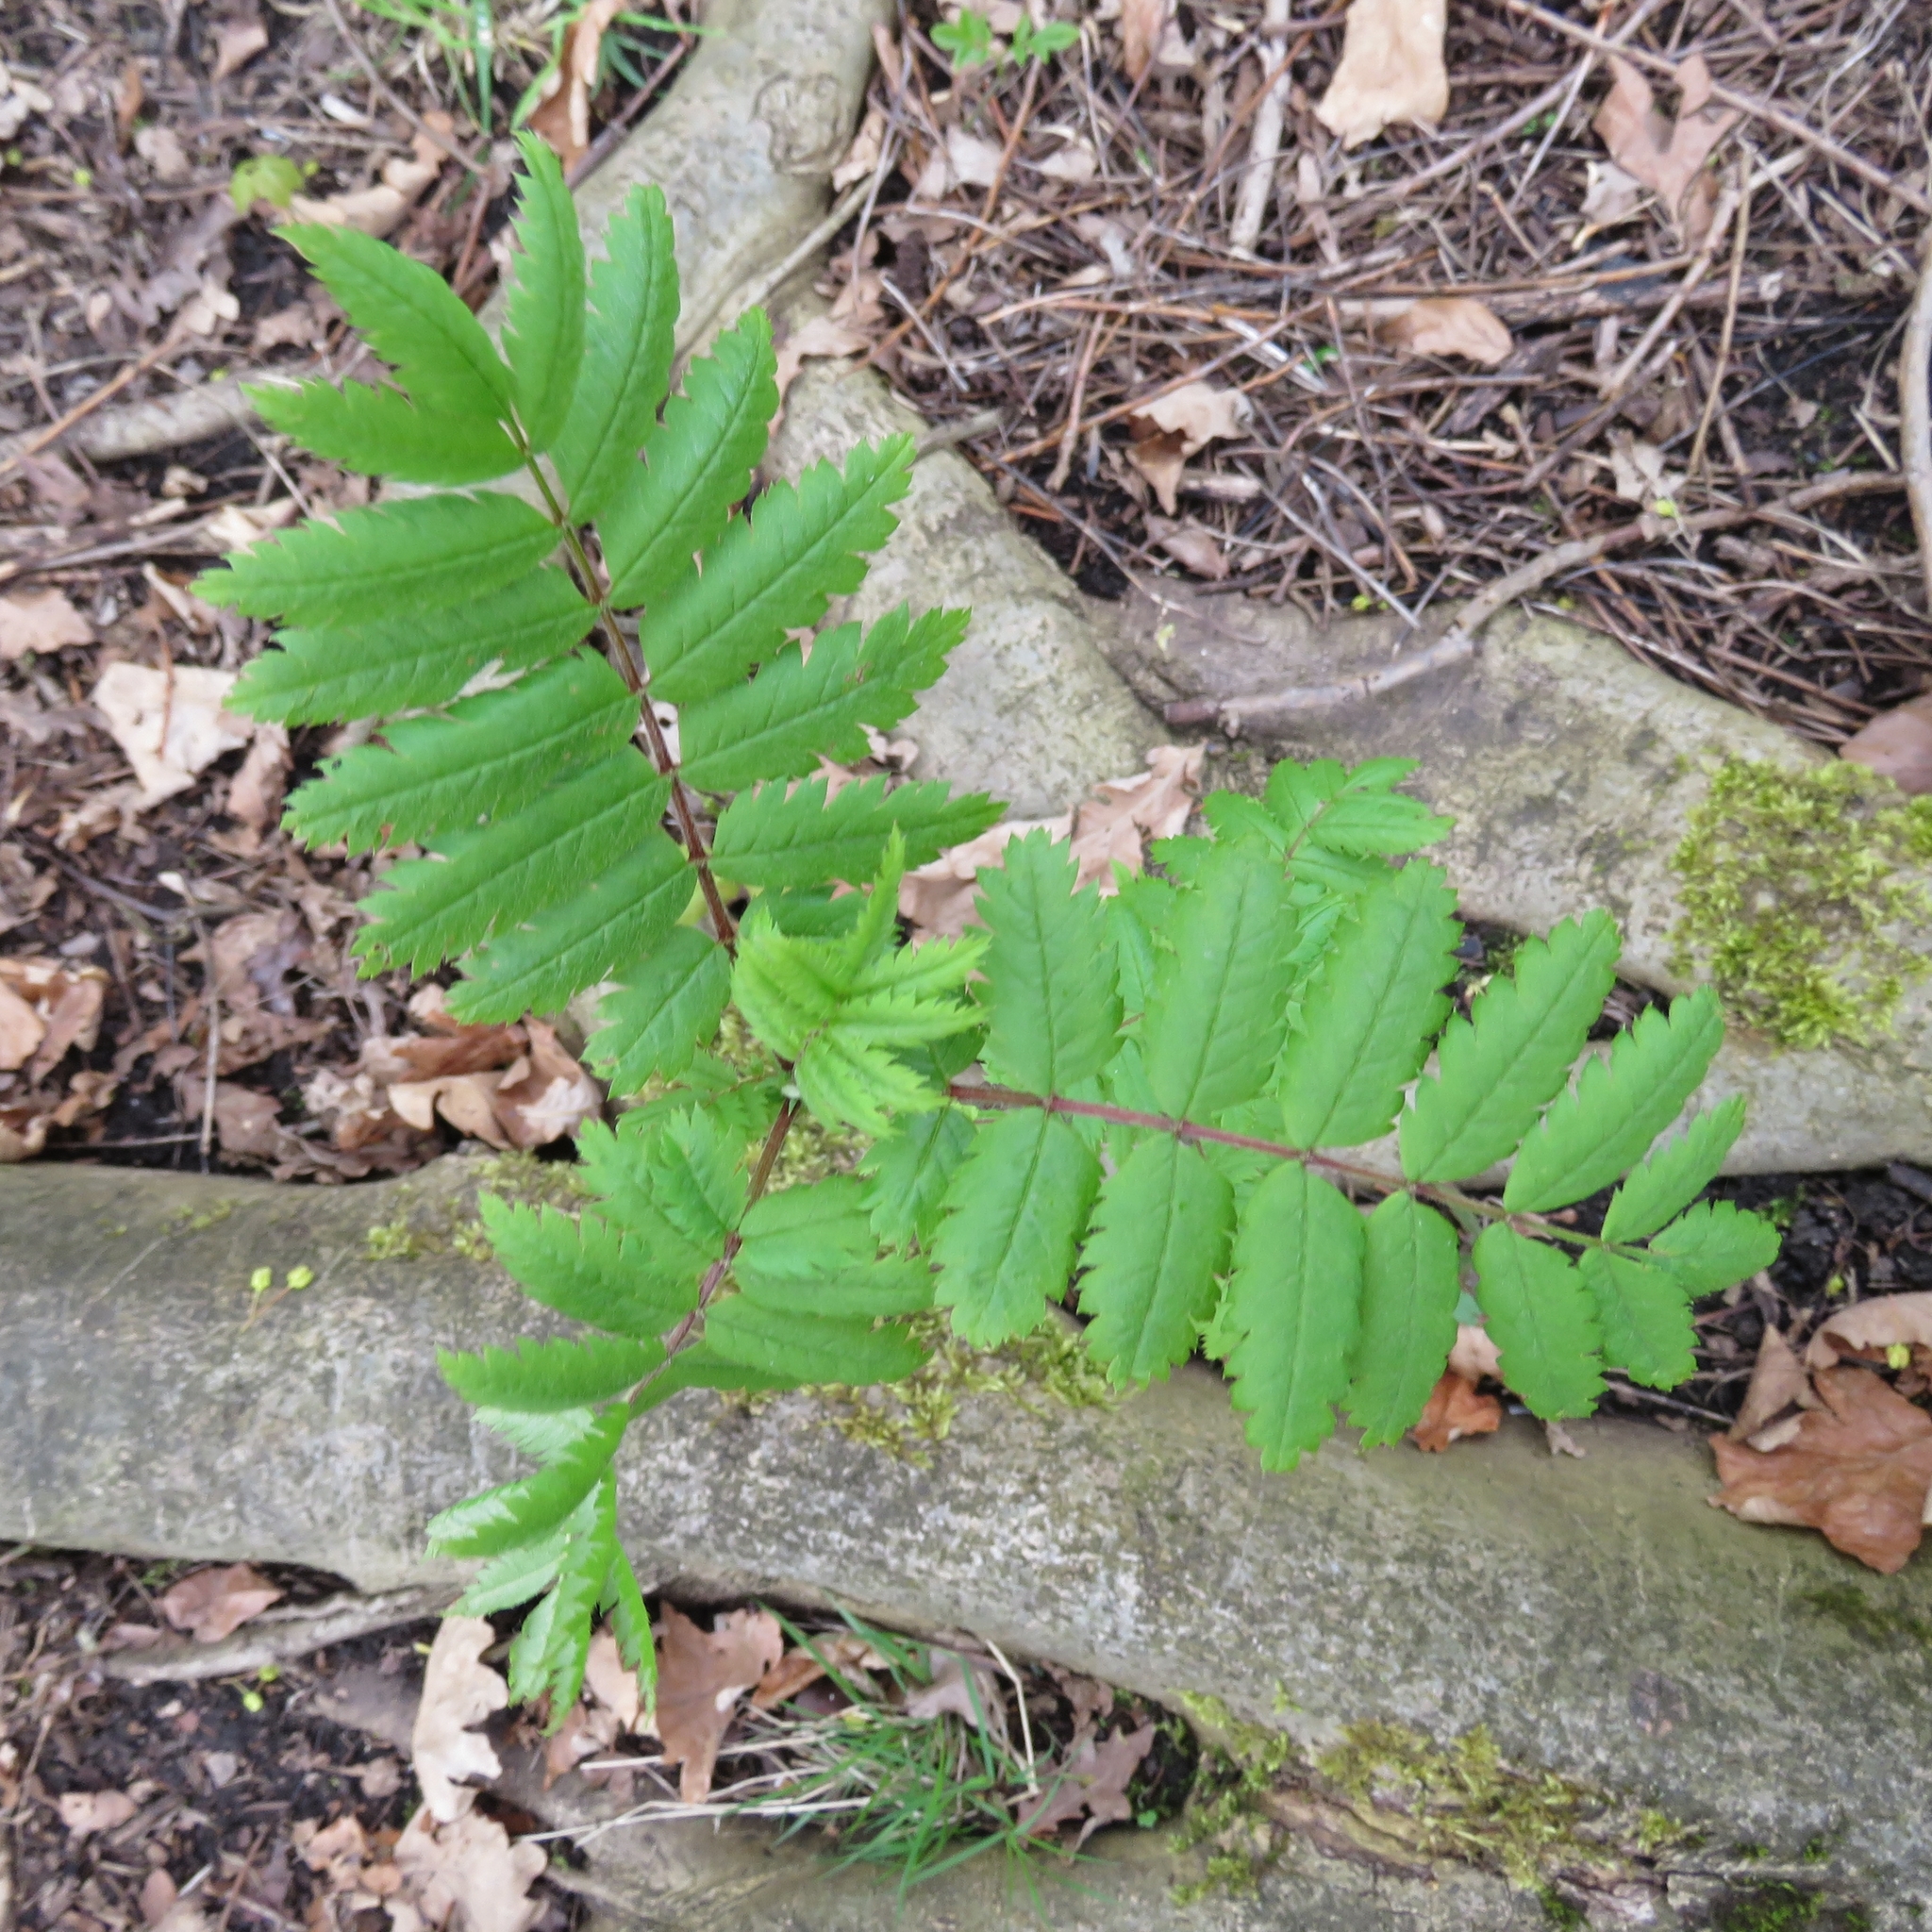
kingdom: Plantae
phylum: Tracheophyta
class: Magnoliopsida
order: Rosales
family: Rosaceae
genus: Sorbus
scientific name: Sorbus aucuparia
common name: Rowan
